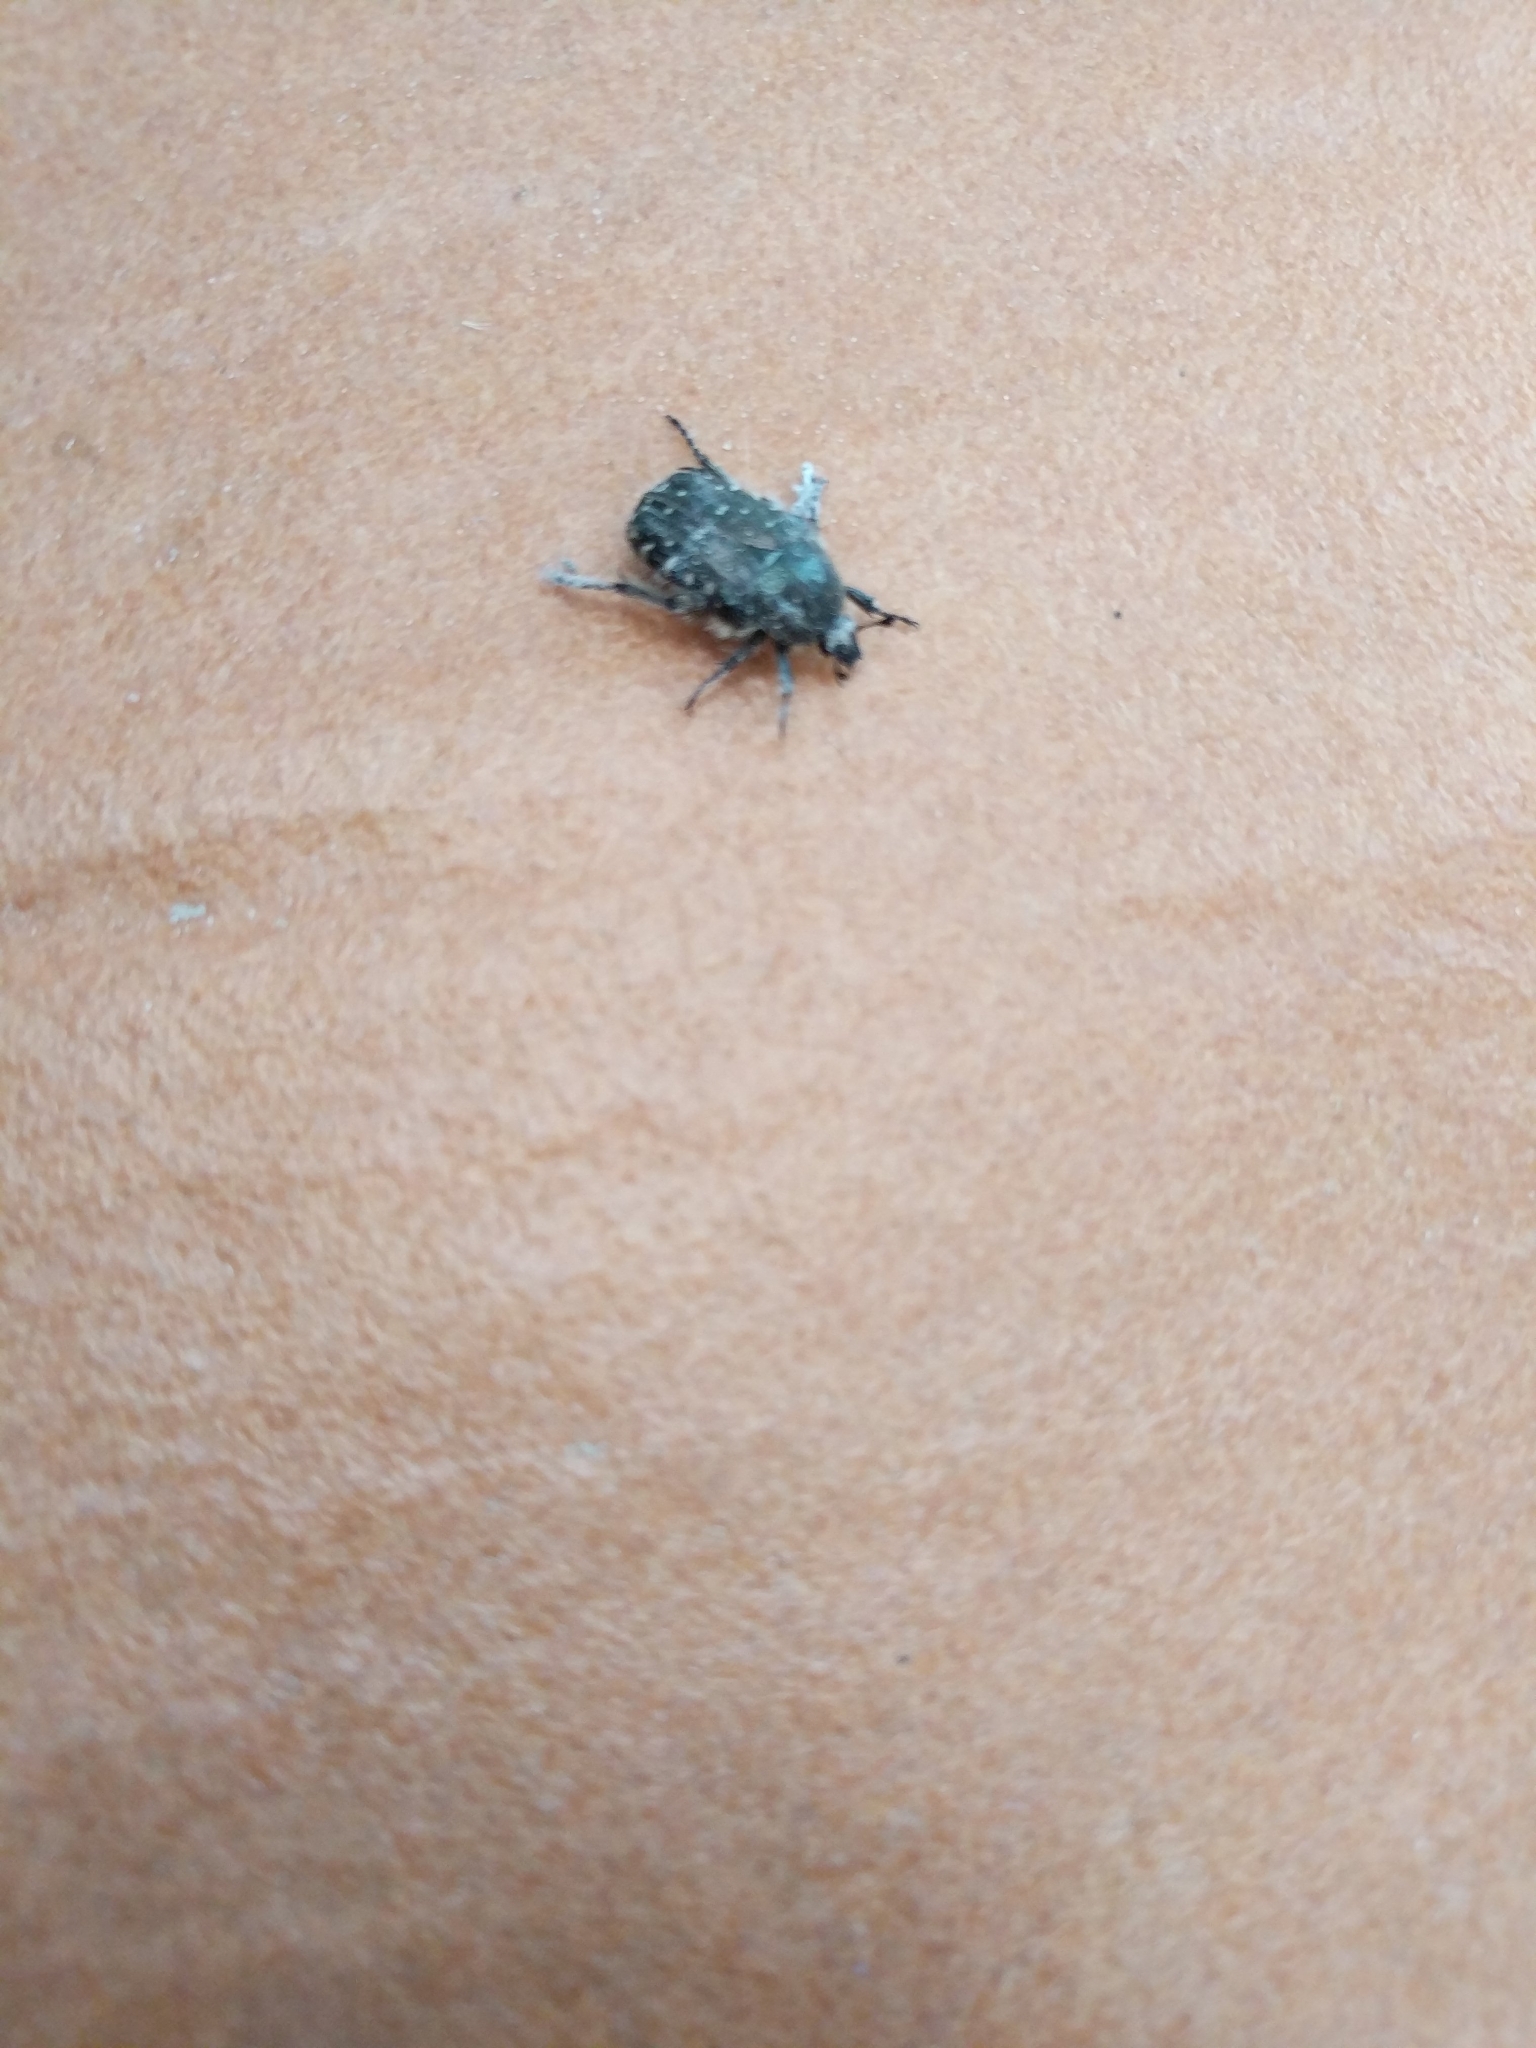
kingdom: Animalia
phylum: Arthropoda
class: Insecta
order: Coleoptera
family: Scarabaeidae
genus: Oxythyrea
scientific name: Oxythyrea funesta
